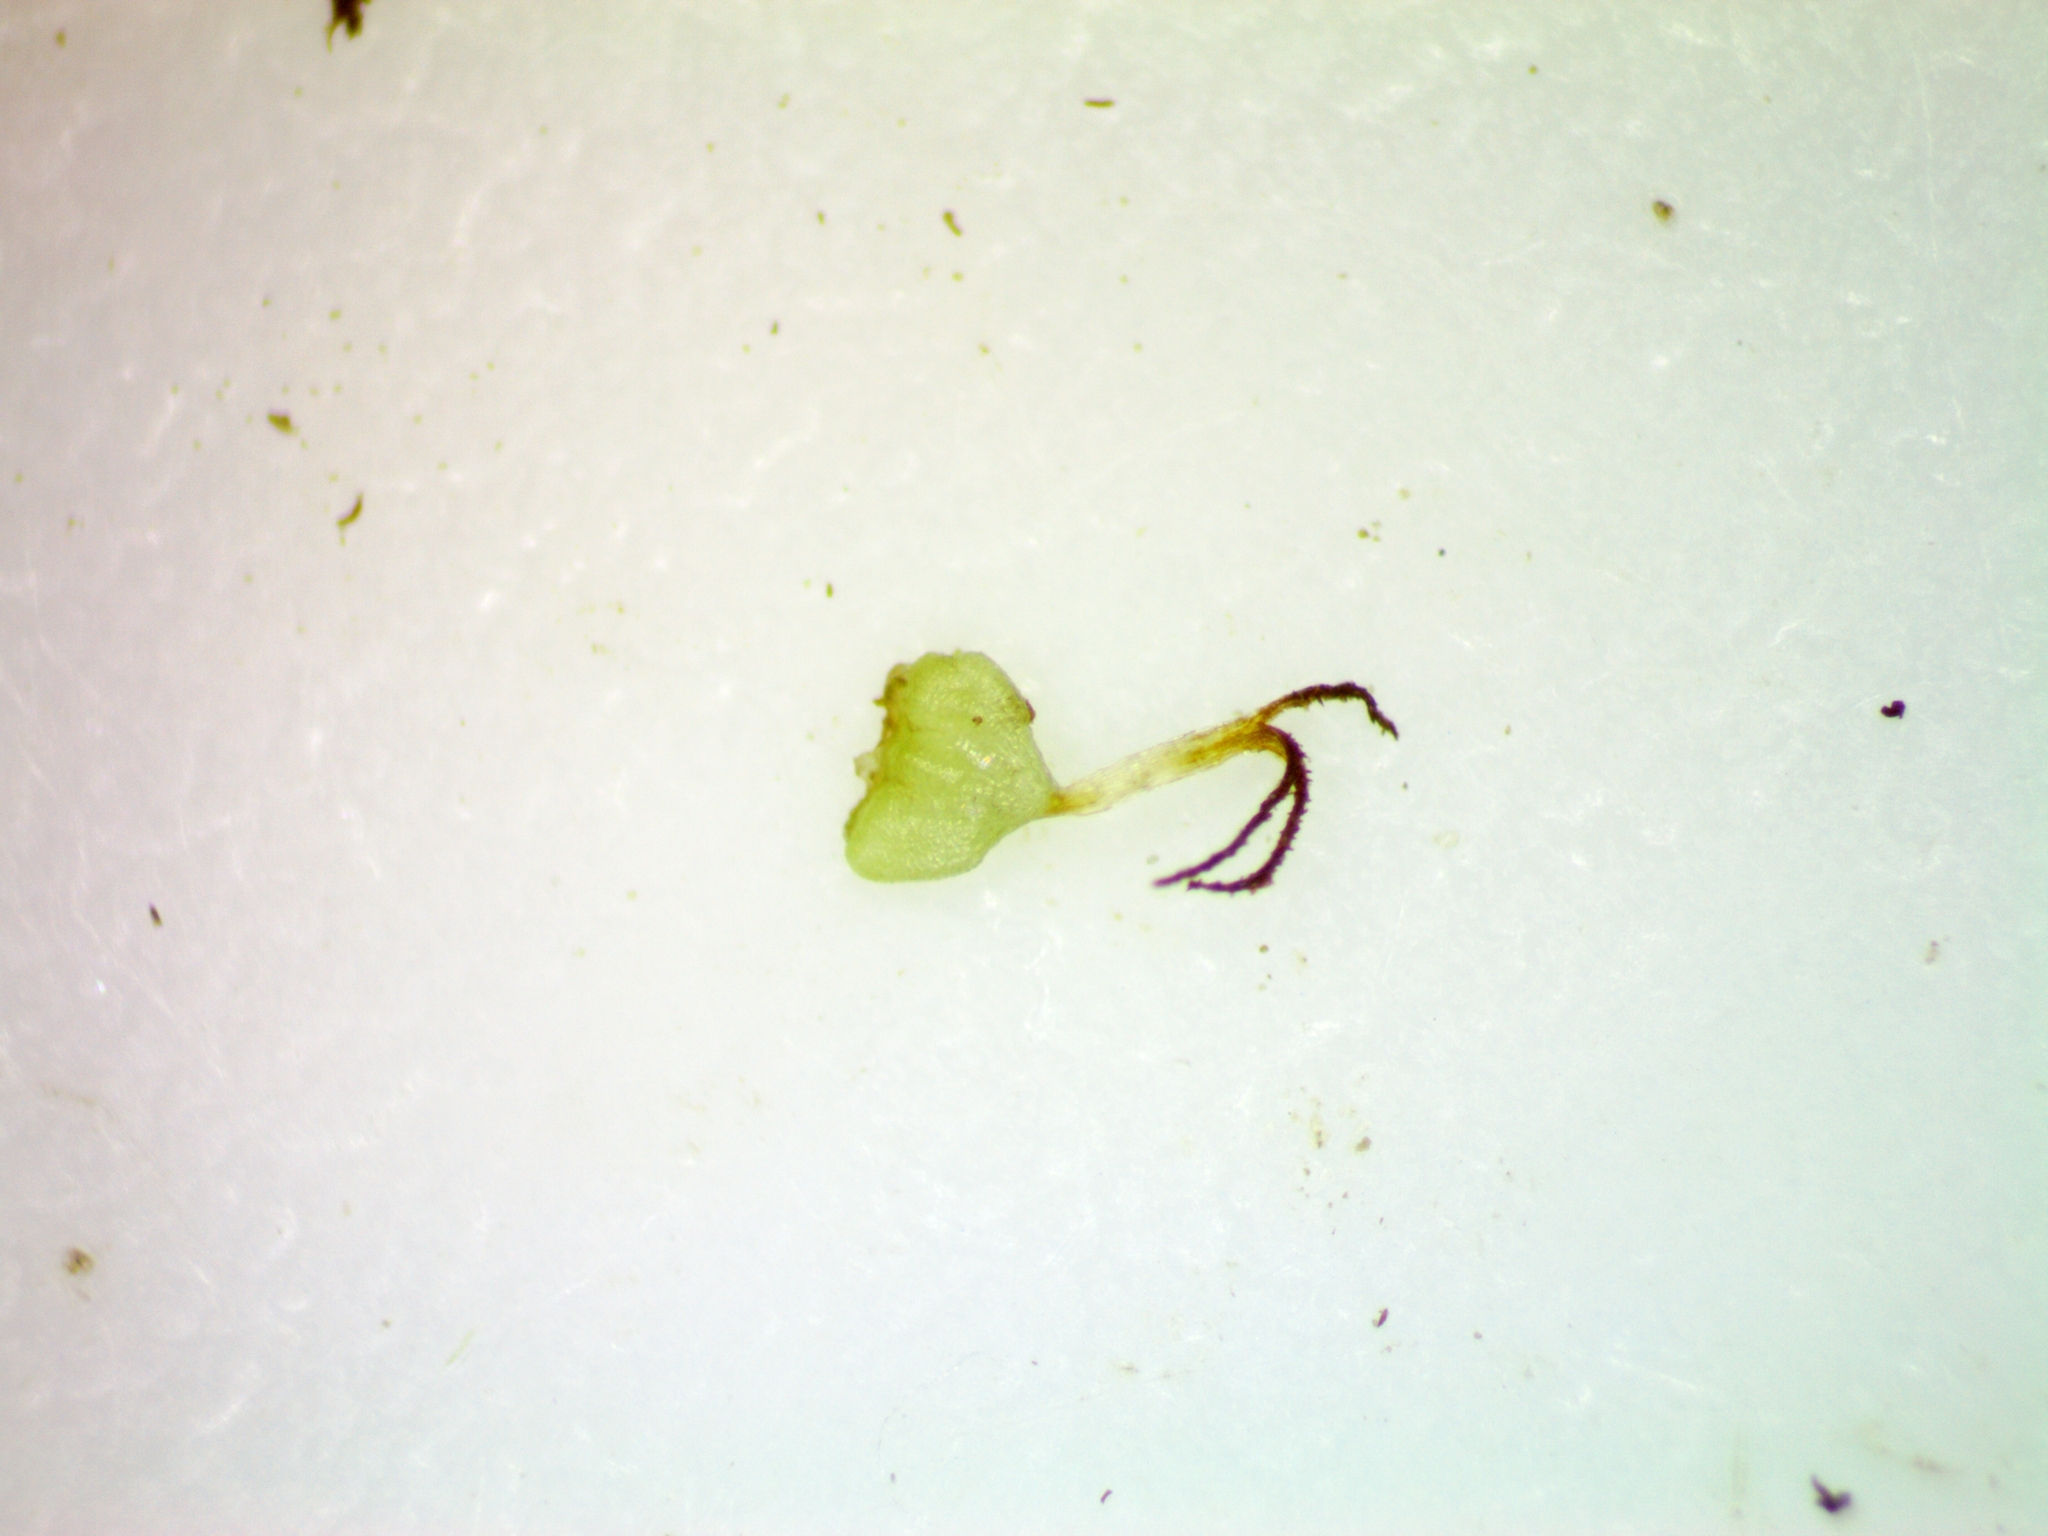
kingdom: Plantae
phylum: Tracheophyta
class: Liliopsida
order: Poales
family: Cyperaceae
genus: Eleocharis
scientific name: Eleocharis obtusa
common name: Blunt spikerush
